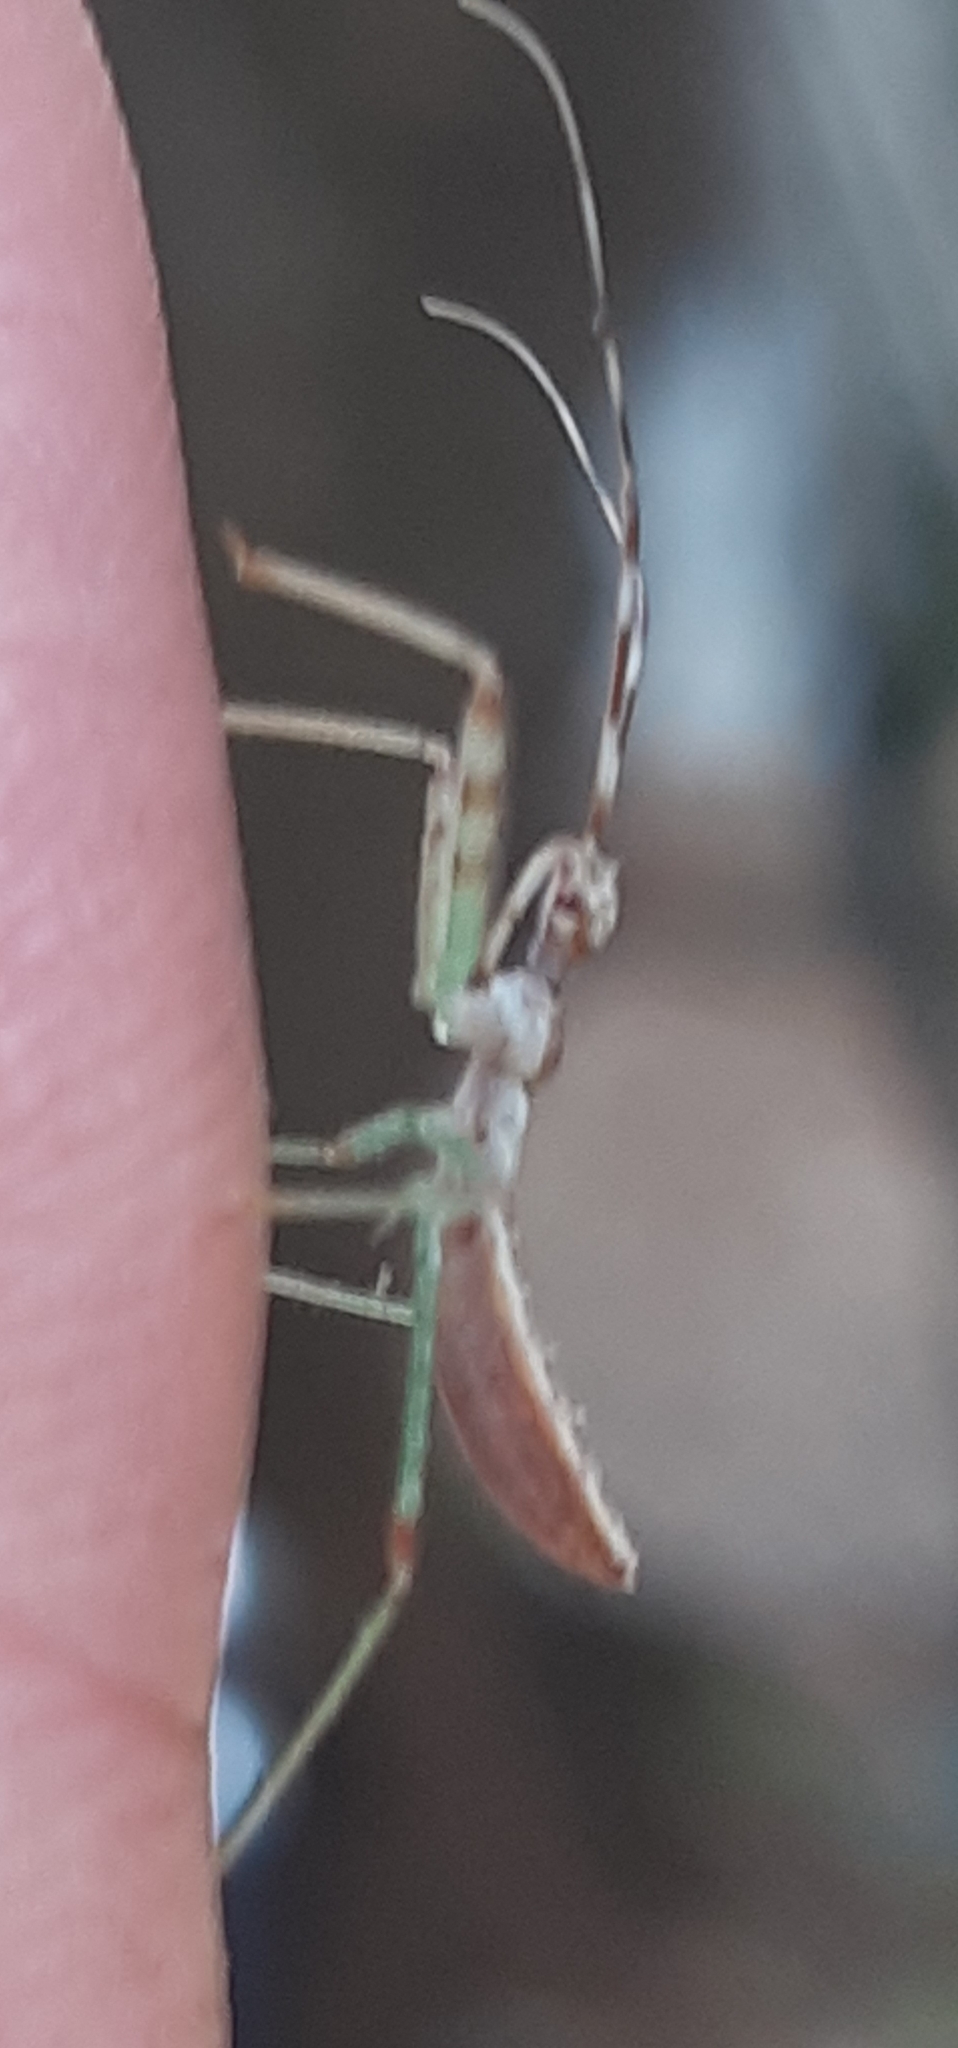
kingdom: Animalia
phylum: Arthropoda
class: Insecta
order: Hemiptera
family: Reduviidae
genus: Nagusta
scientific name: Nagusta goedelii
